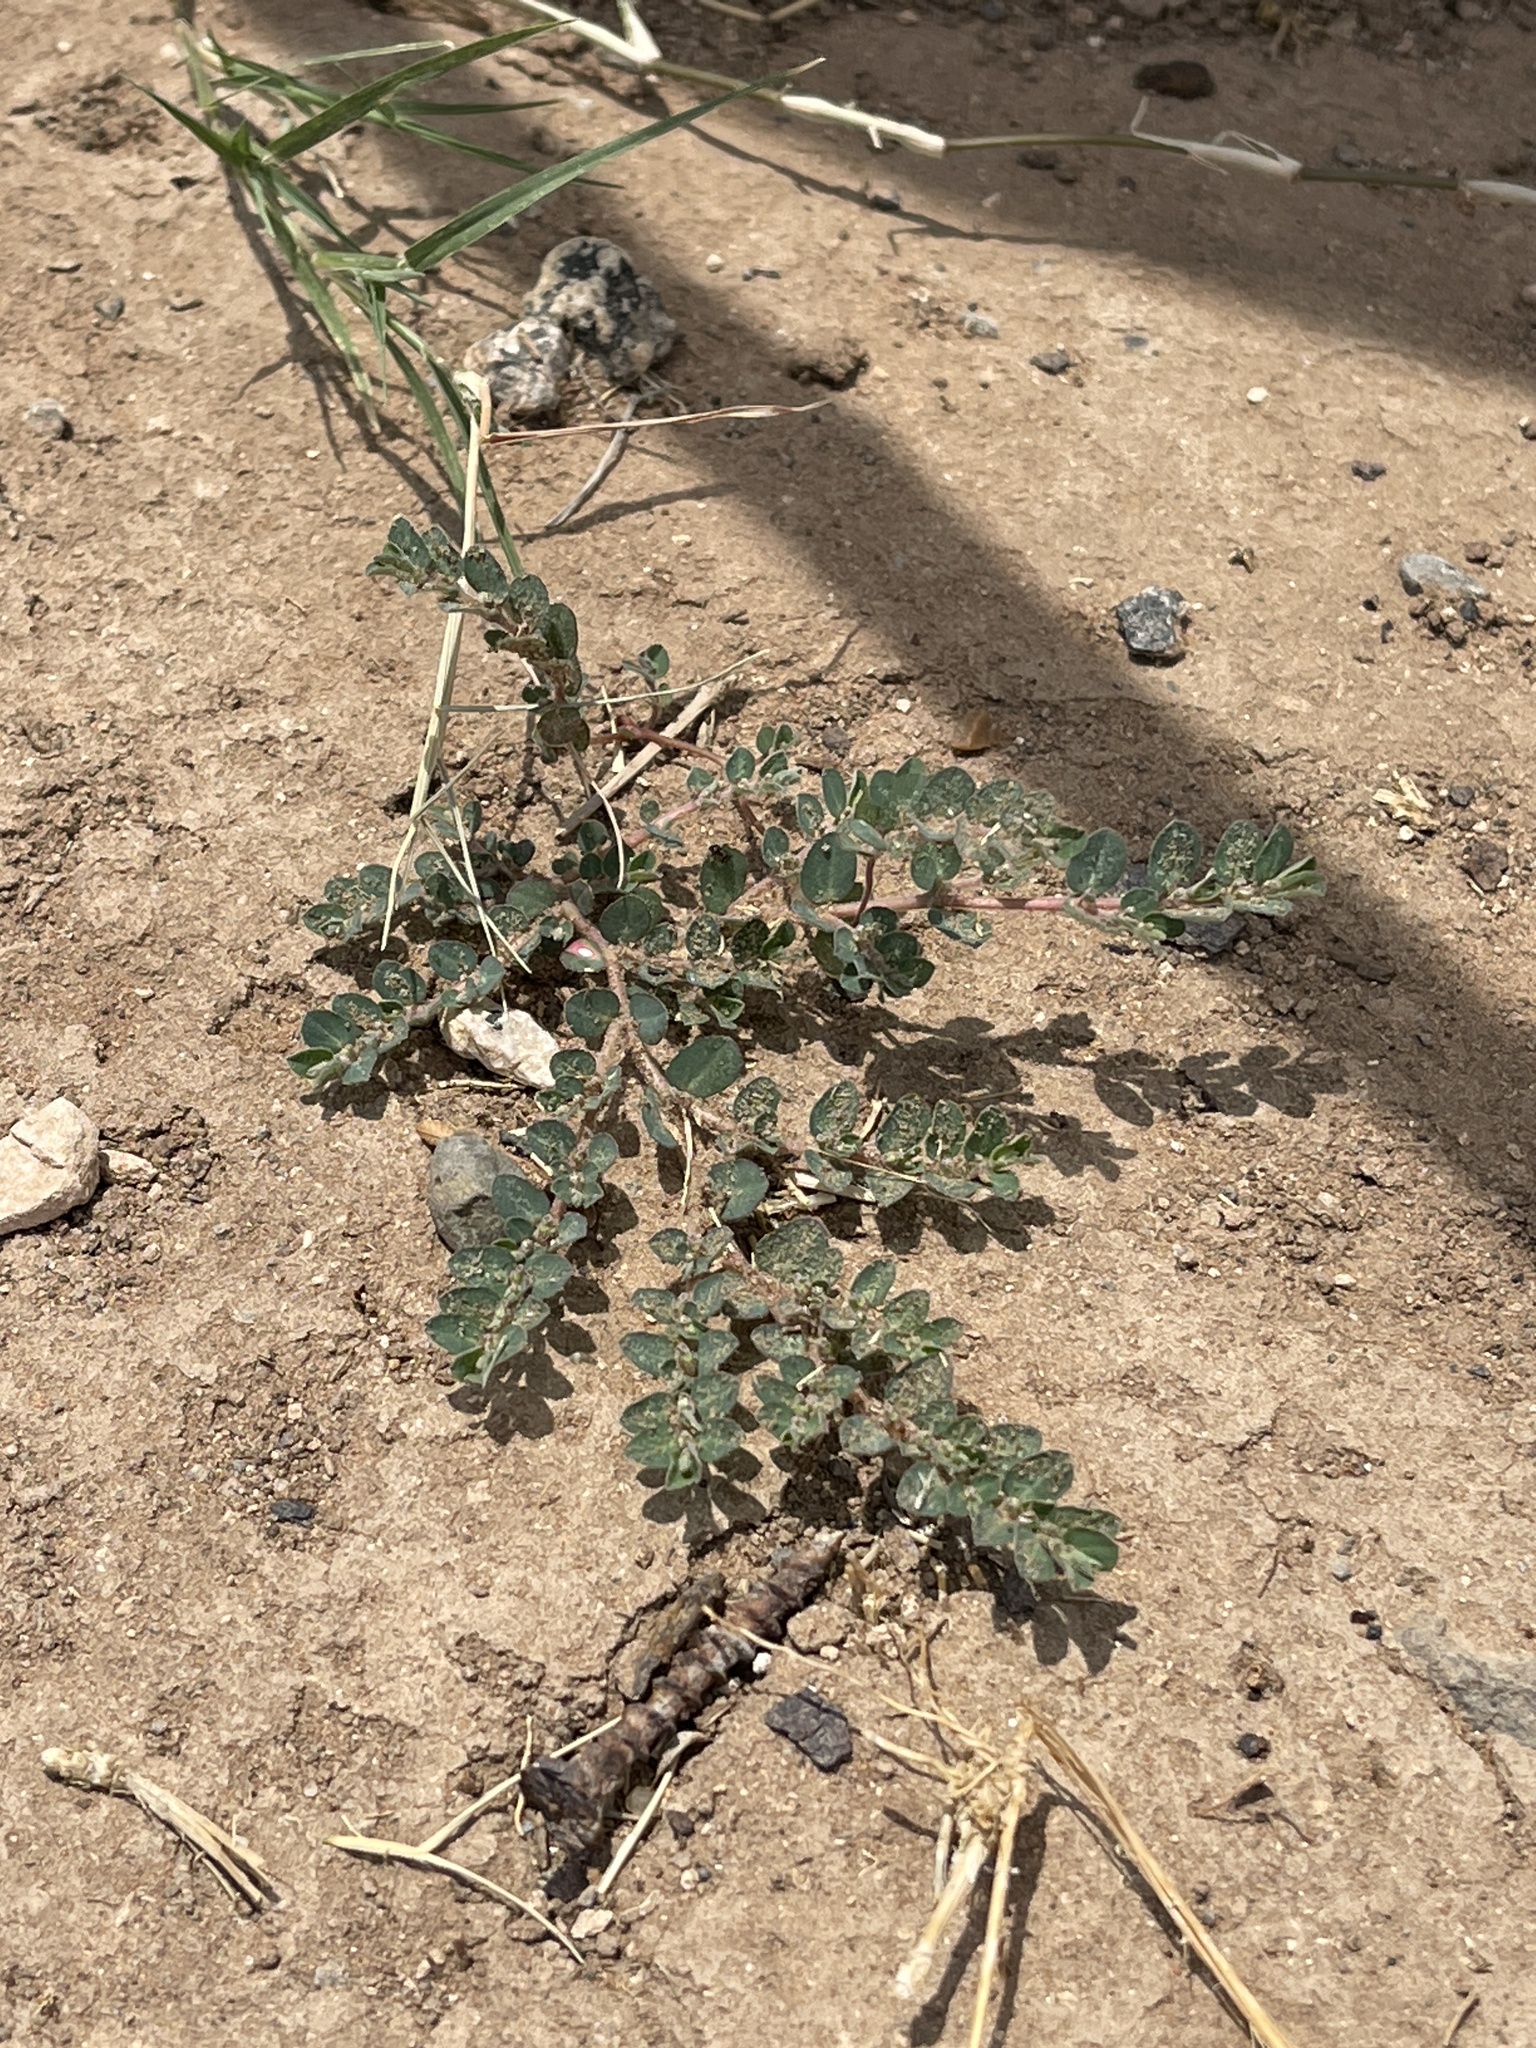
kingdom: Plantae
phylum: Tracheophyta
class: Magnoliopsida
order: Malpighiales
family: Euphorbiaceae
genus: Euphorbia
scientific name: Euphorbia prostrata
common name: Prostrate sandmat
